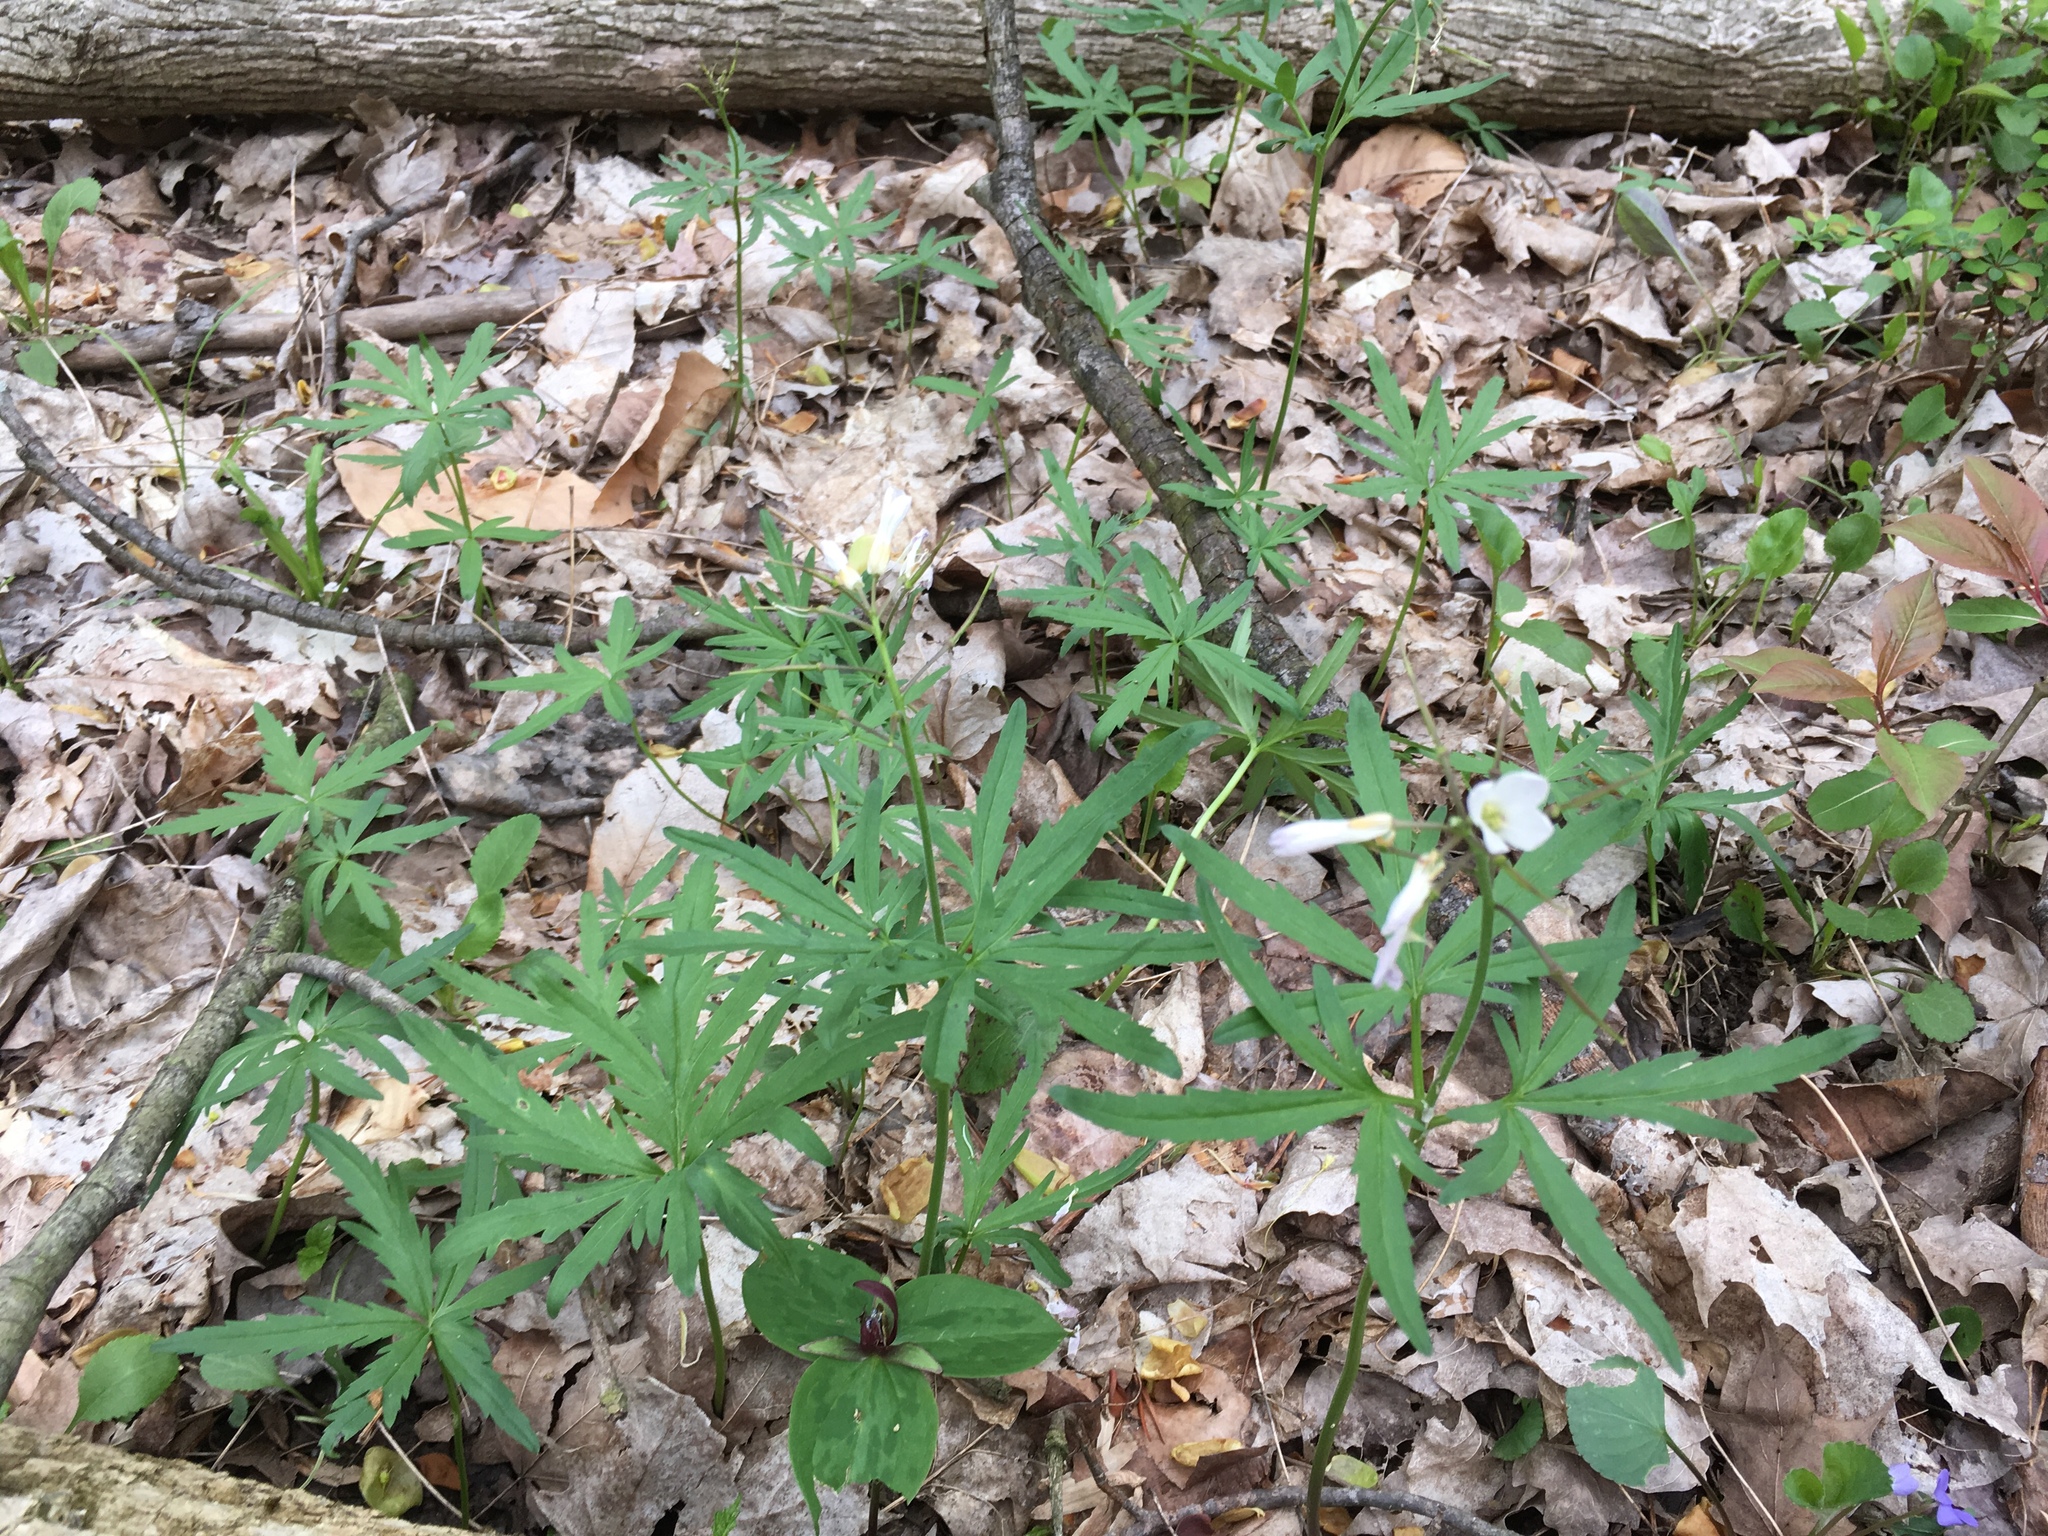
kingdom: Plantae
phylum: Tracheophyta
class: Magnoliopsida
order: Brassicales
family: Brassicaceae
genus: Cardamine
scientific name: Cardamine concatenata
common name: Cut-leaf toothcup
